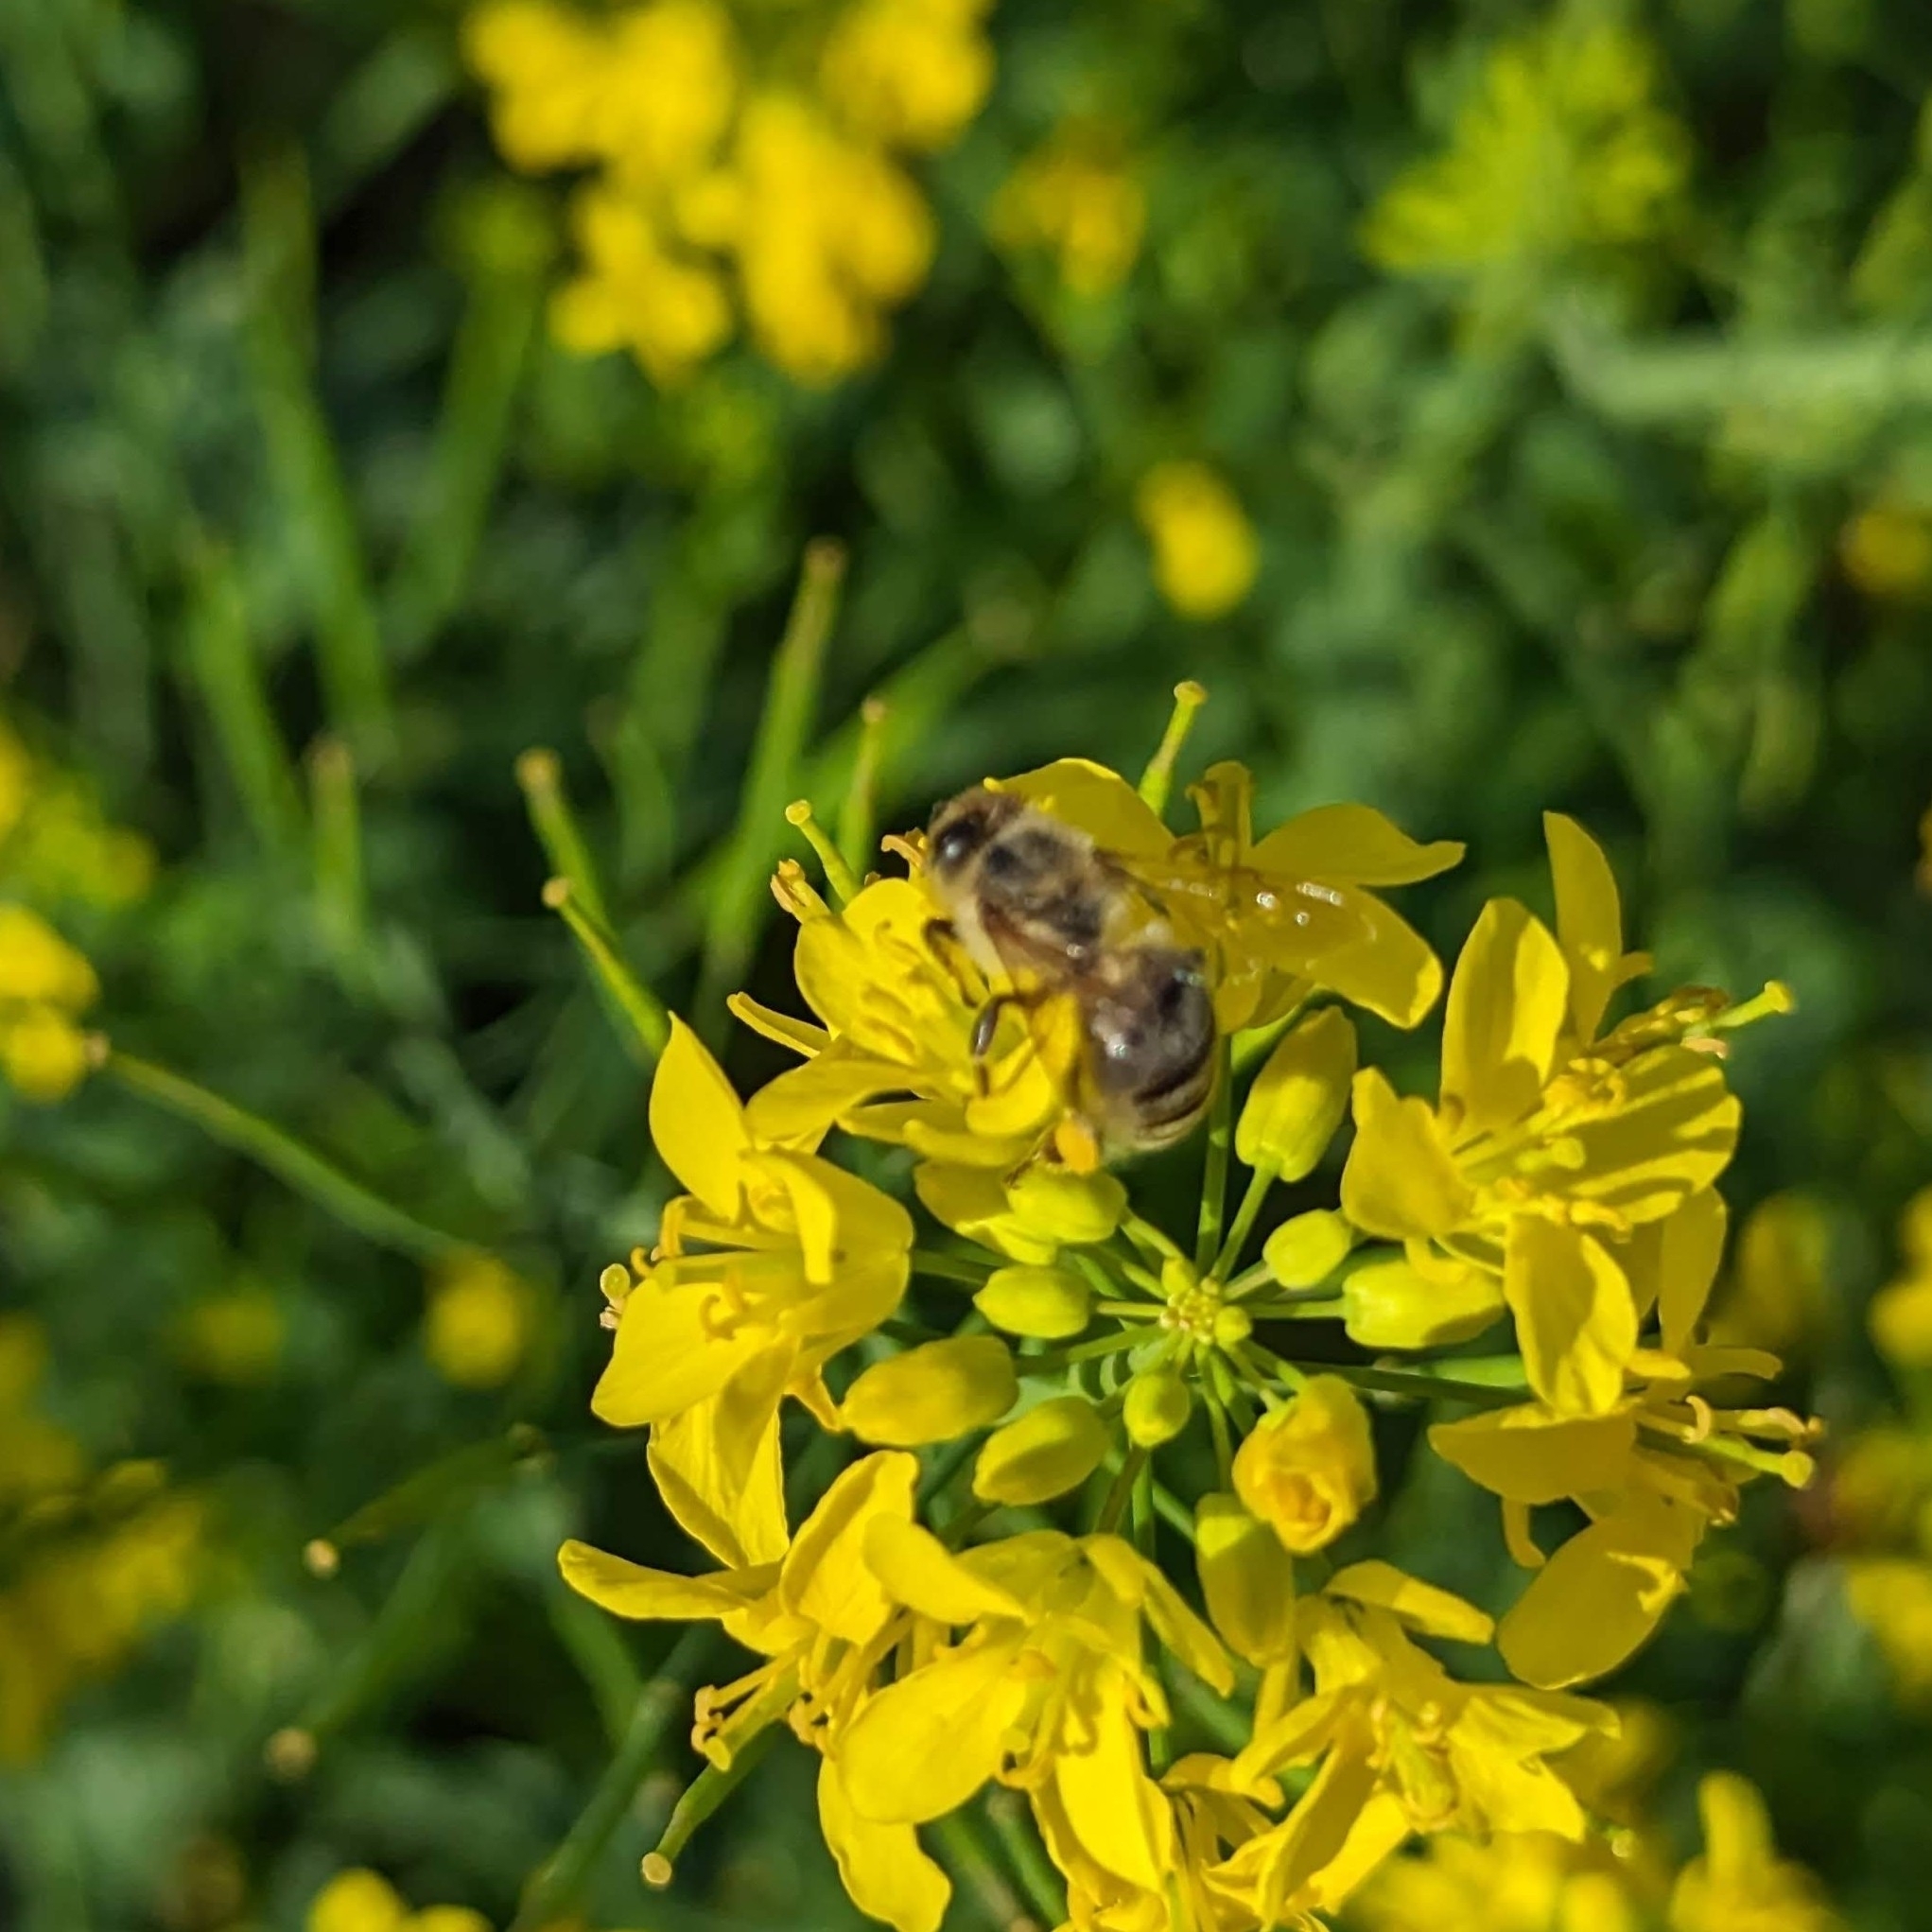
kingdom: Animalia
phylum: Arthropoda
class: Insecta
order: Hymenoptera
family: Apidae
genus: Apis
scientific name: Apis mellifera
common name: Honey bee
